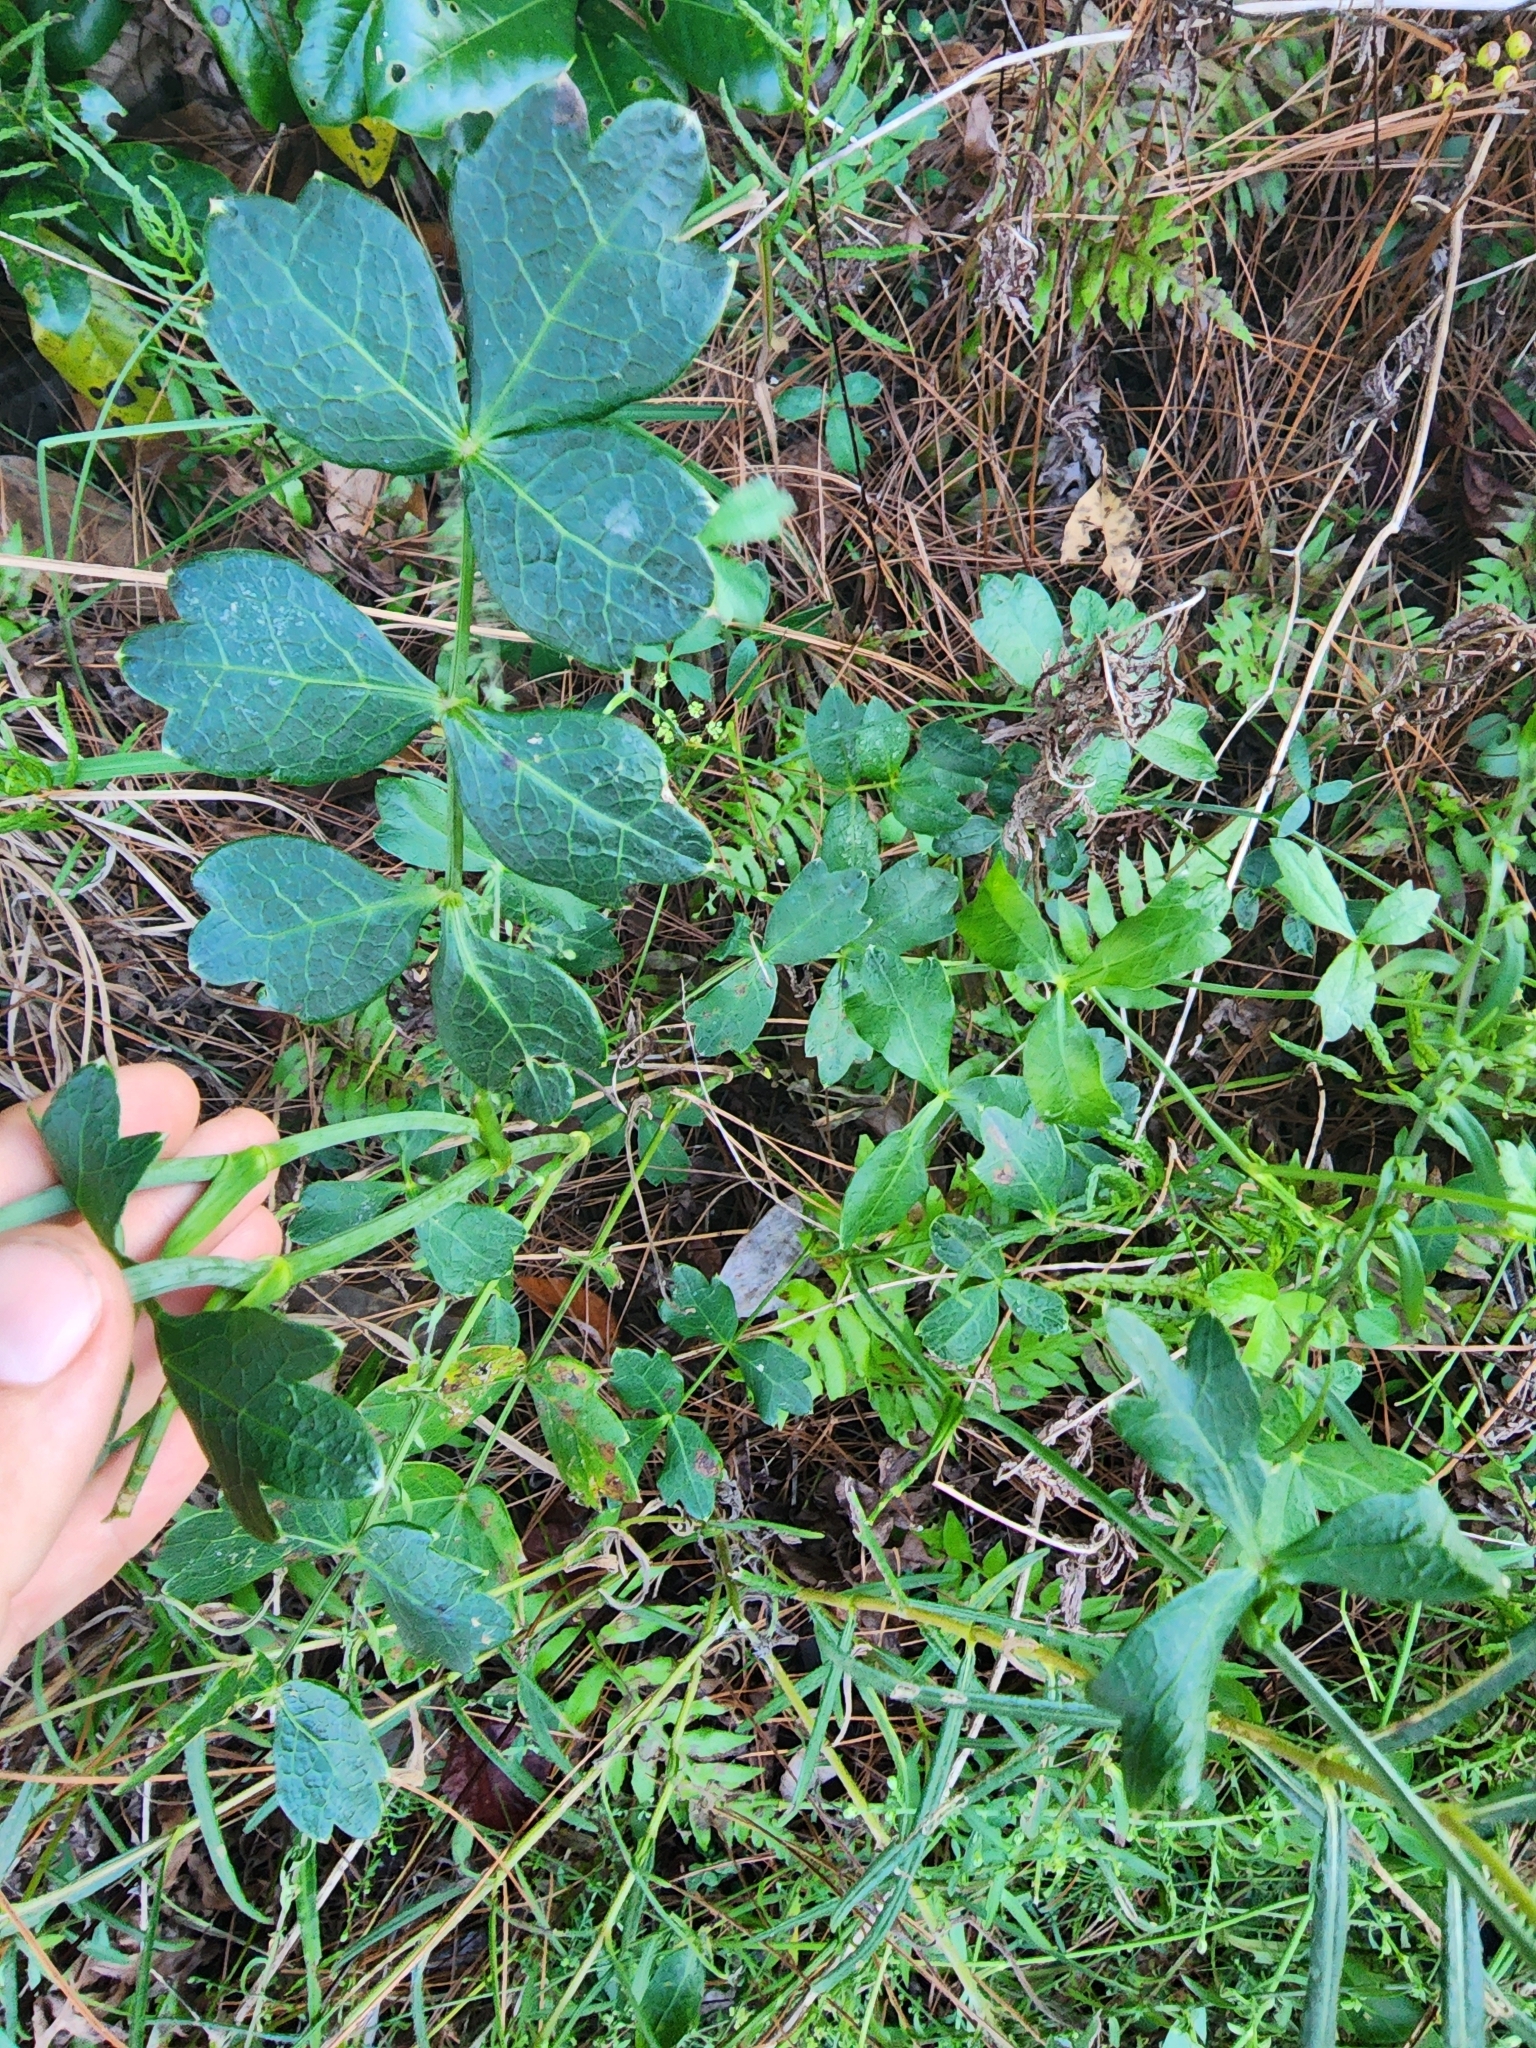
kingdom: Plantae
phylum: Tracheophyta
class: Magnoliopsida
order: Apiales
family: Apiaceae
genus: Oxypolis
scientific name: Oxypolis rigidior
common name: Cowbane
